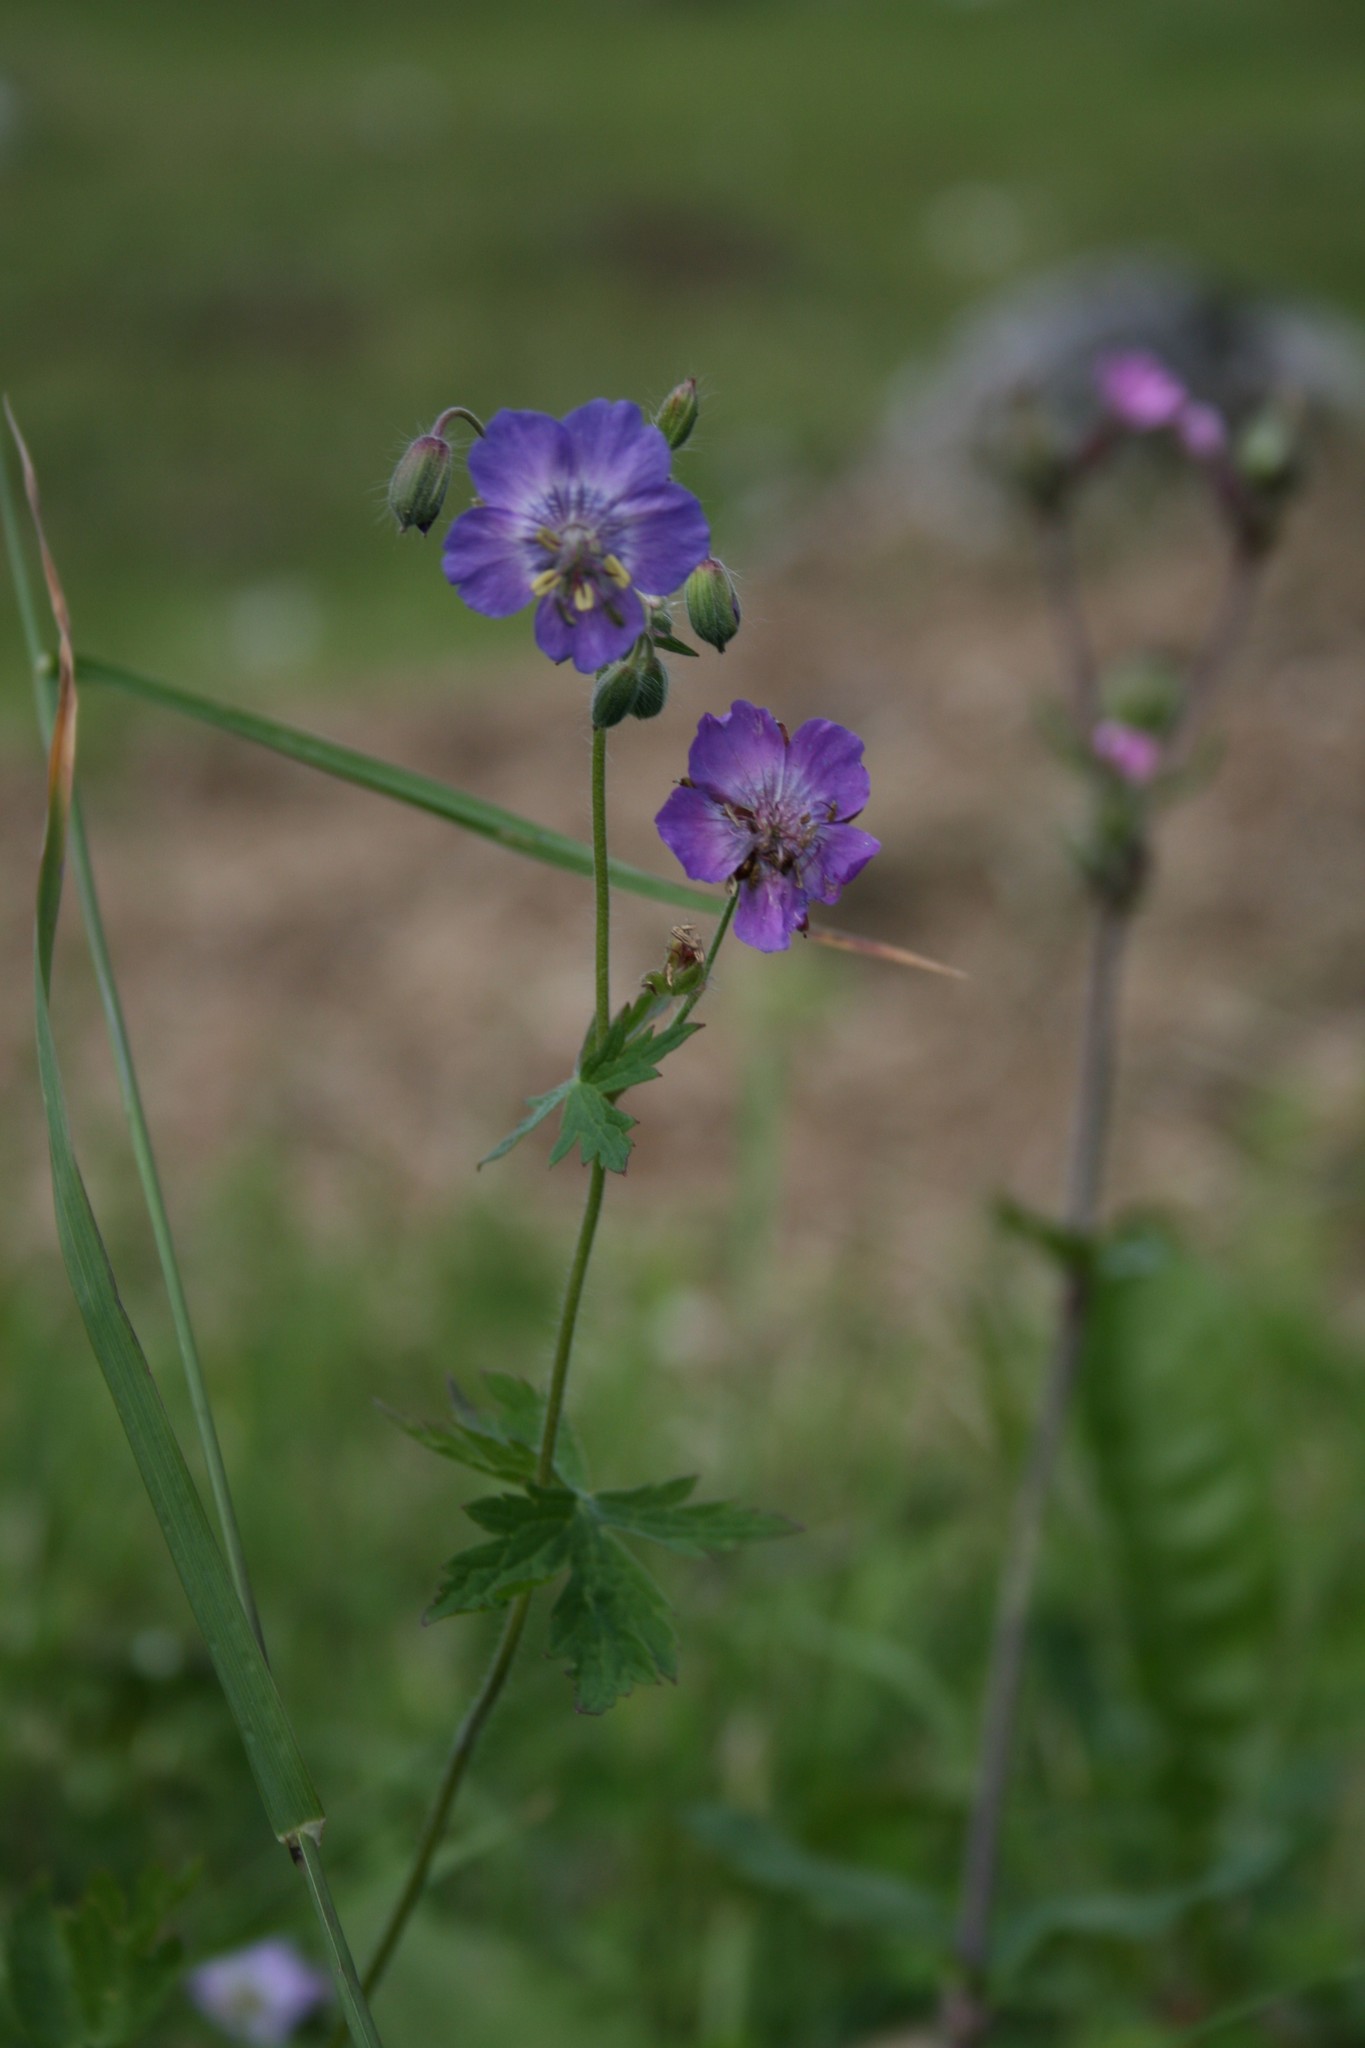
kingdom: Plantae
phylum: Tracheophyta
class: Magnoliopsida
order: Geraniales
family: Geraniaceae
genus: Geranium
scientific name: Geranium phaeum
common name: Dusky crane's-bill
